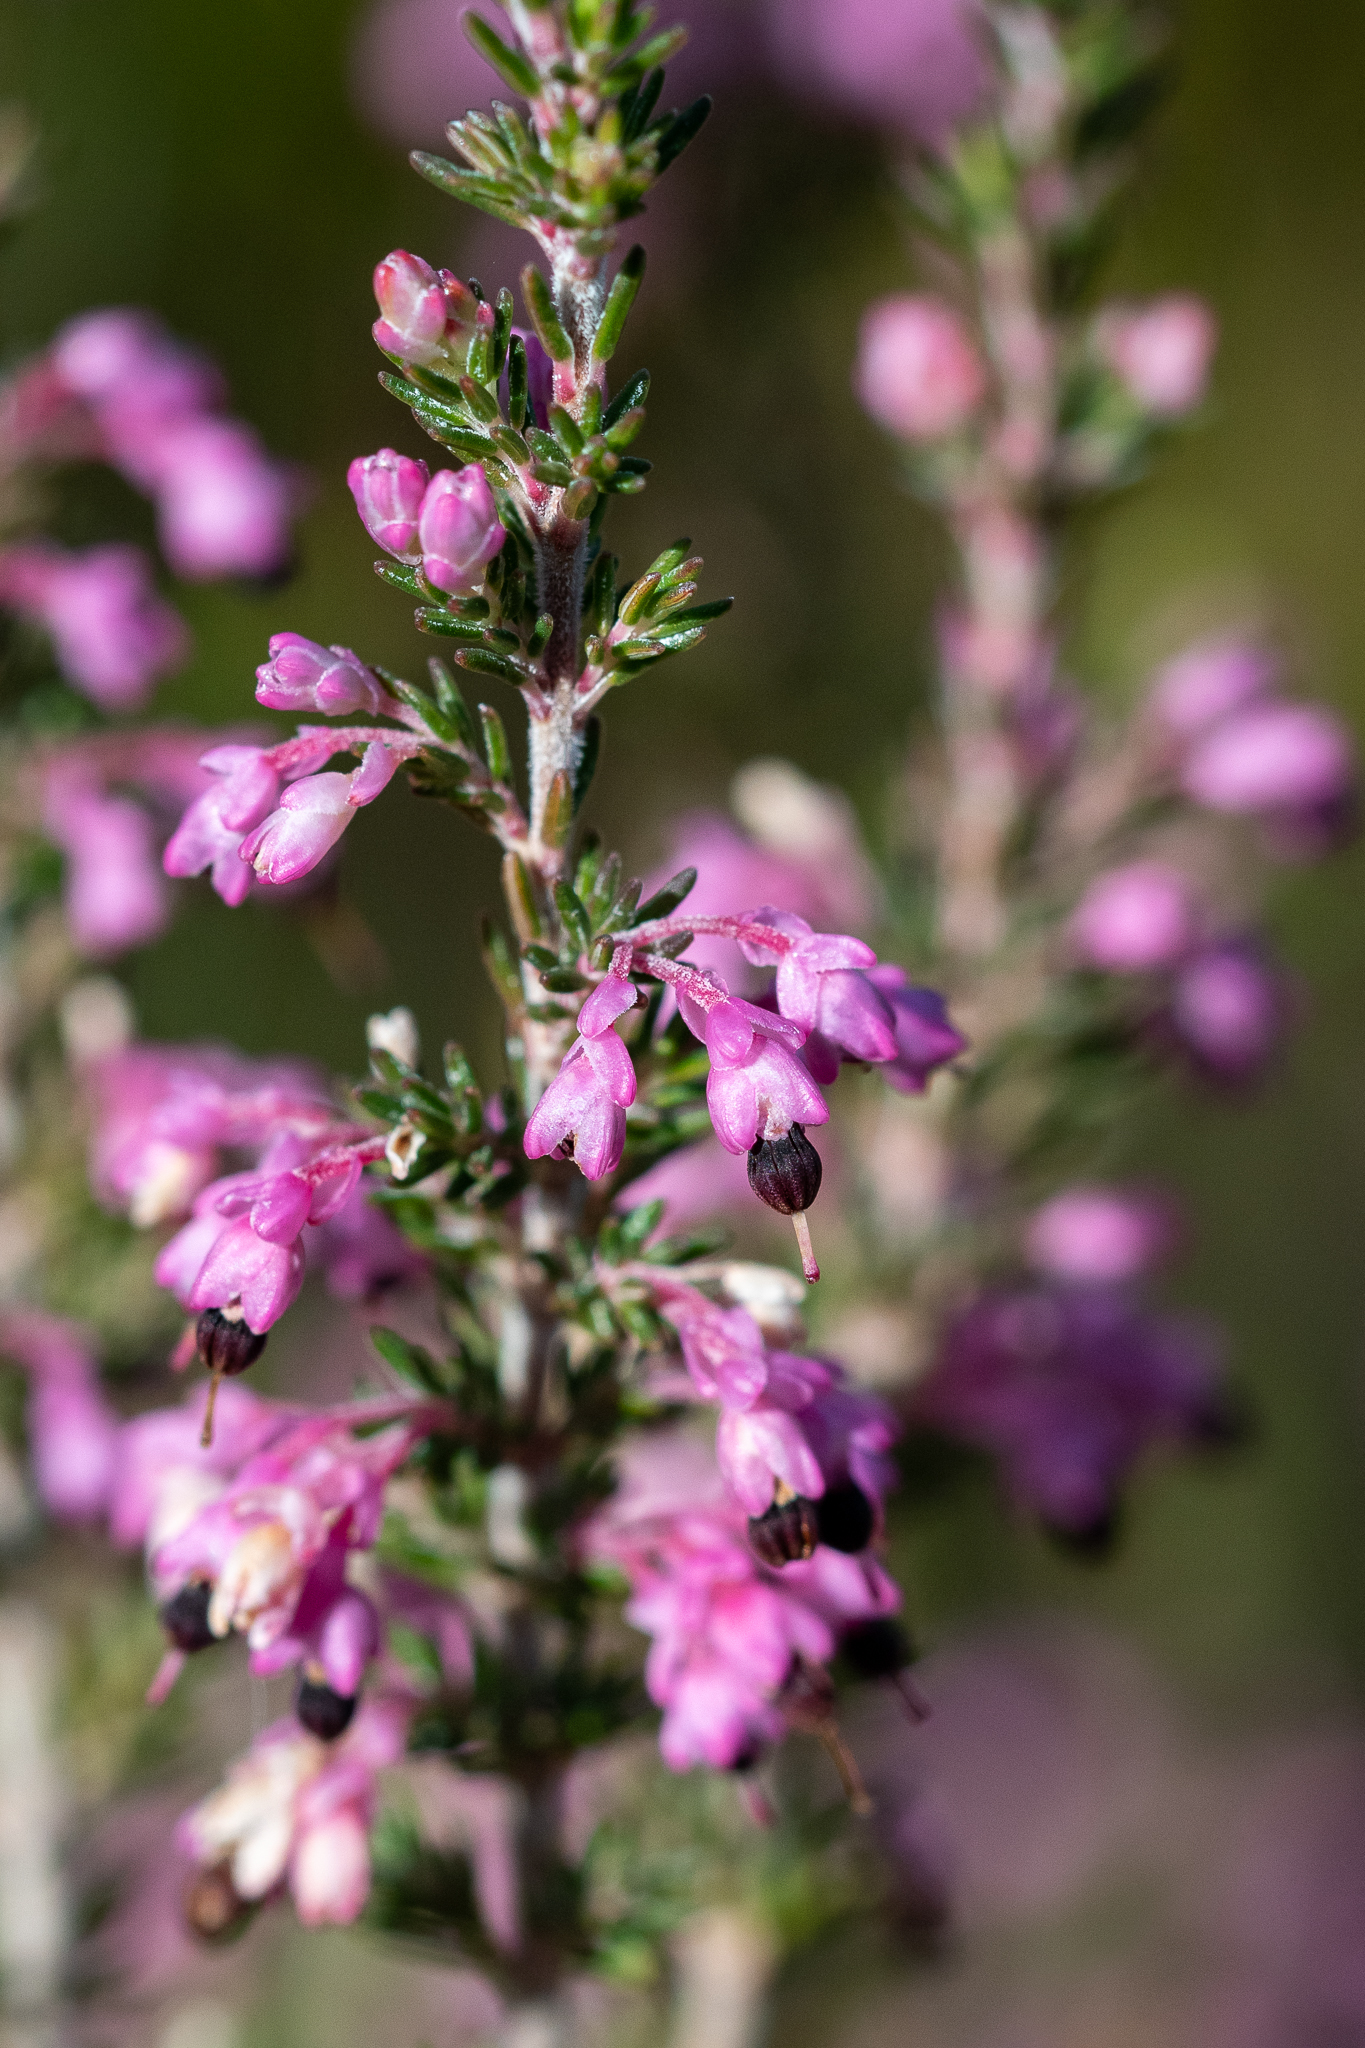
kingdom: Plantae
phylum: Tracheophyta
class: Magnoliopsida
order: Ericales
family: Ericaceae
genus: Erica
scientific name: Erica placentiflora
